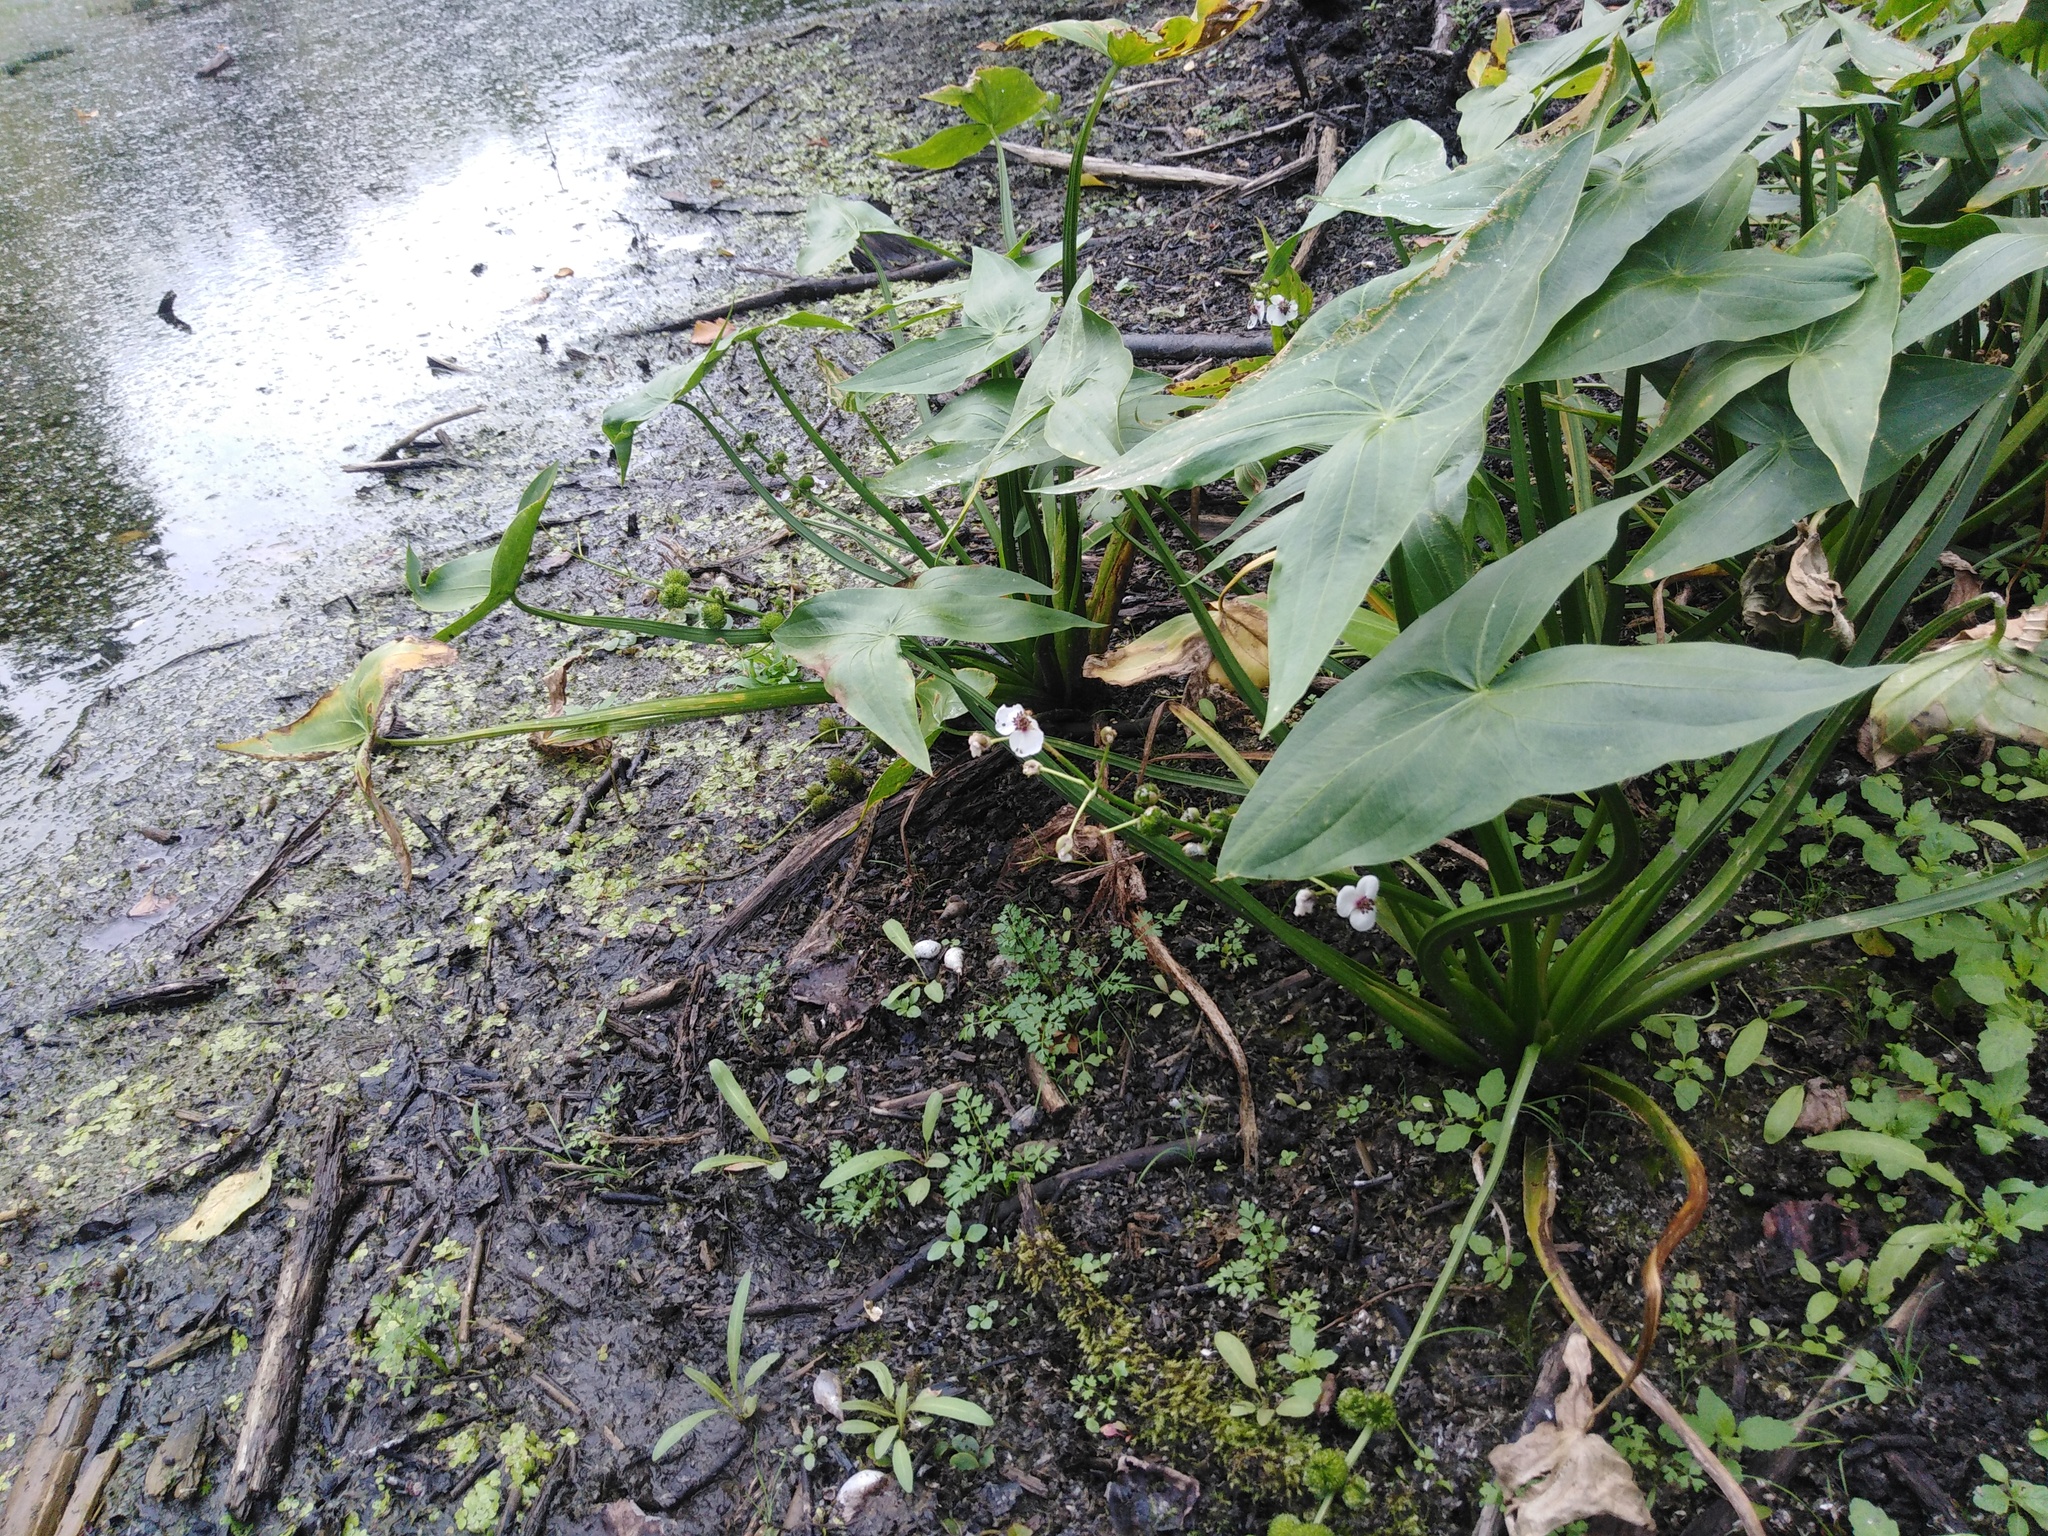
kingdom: Plantae
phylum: Tracheophyta
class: Liliopsida
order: Alismatales
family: Alismataceae
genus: Sagittaria
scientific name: Sagittaria sagittifolia
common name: Arrowhead
